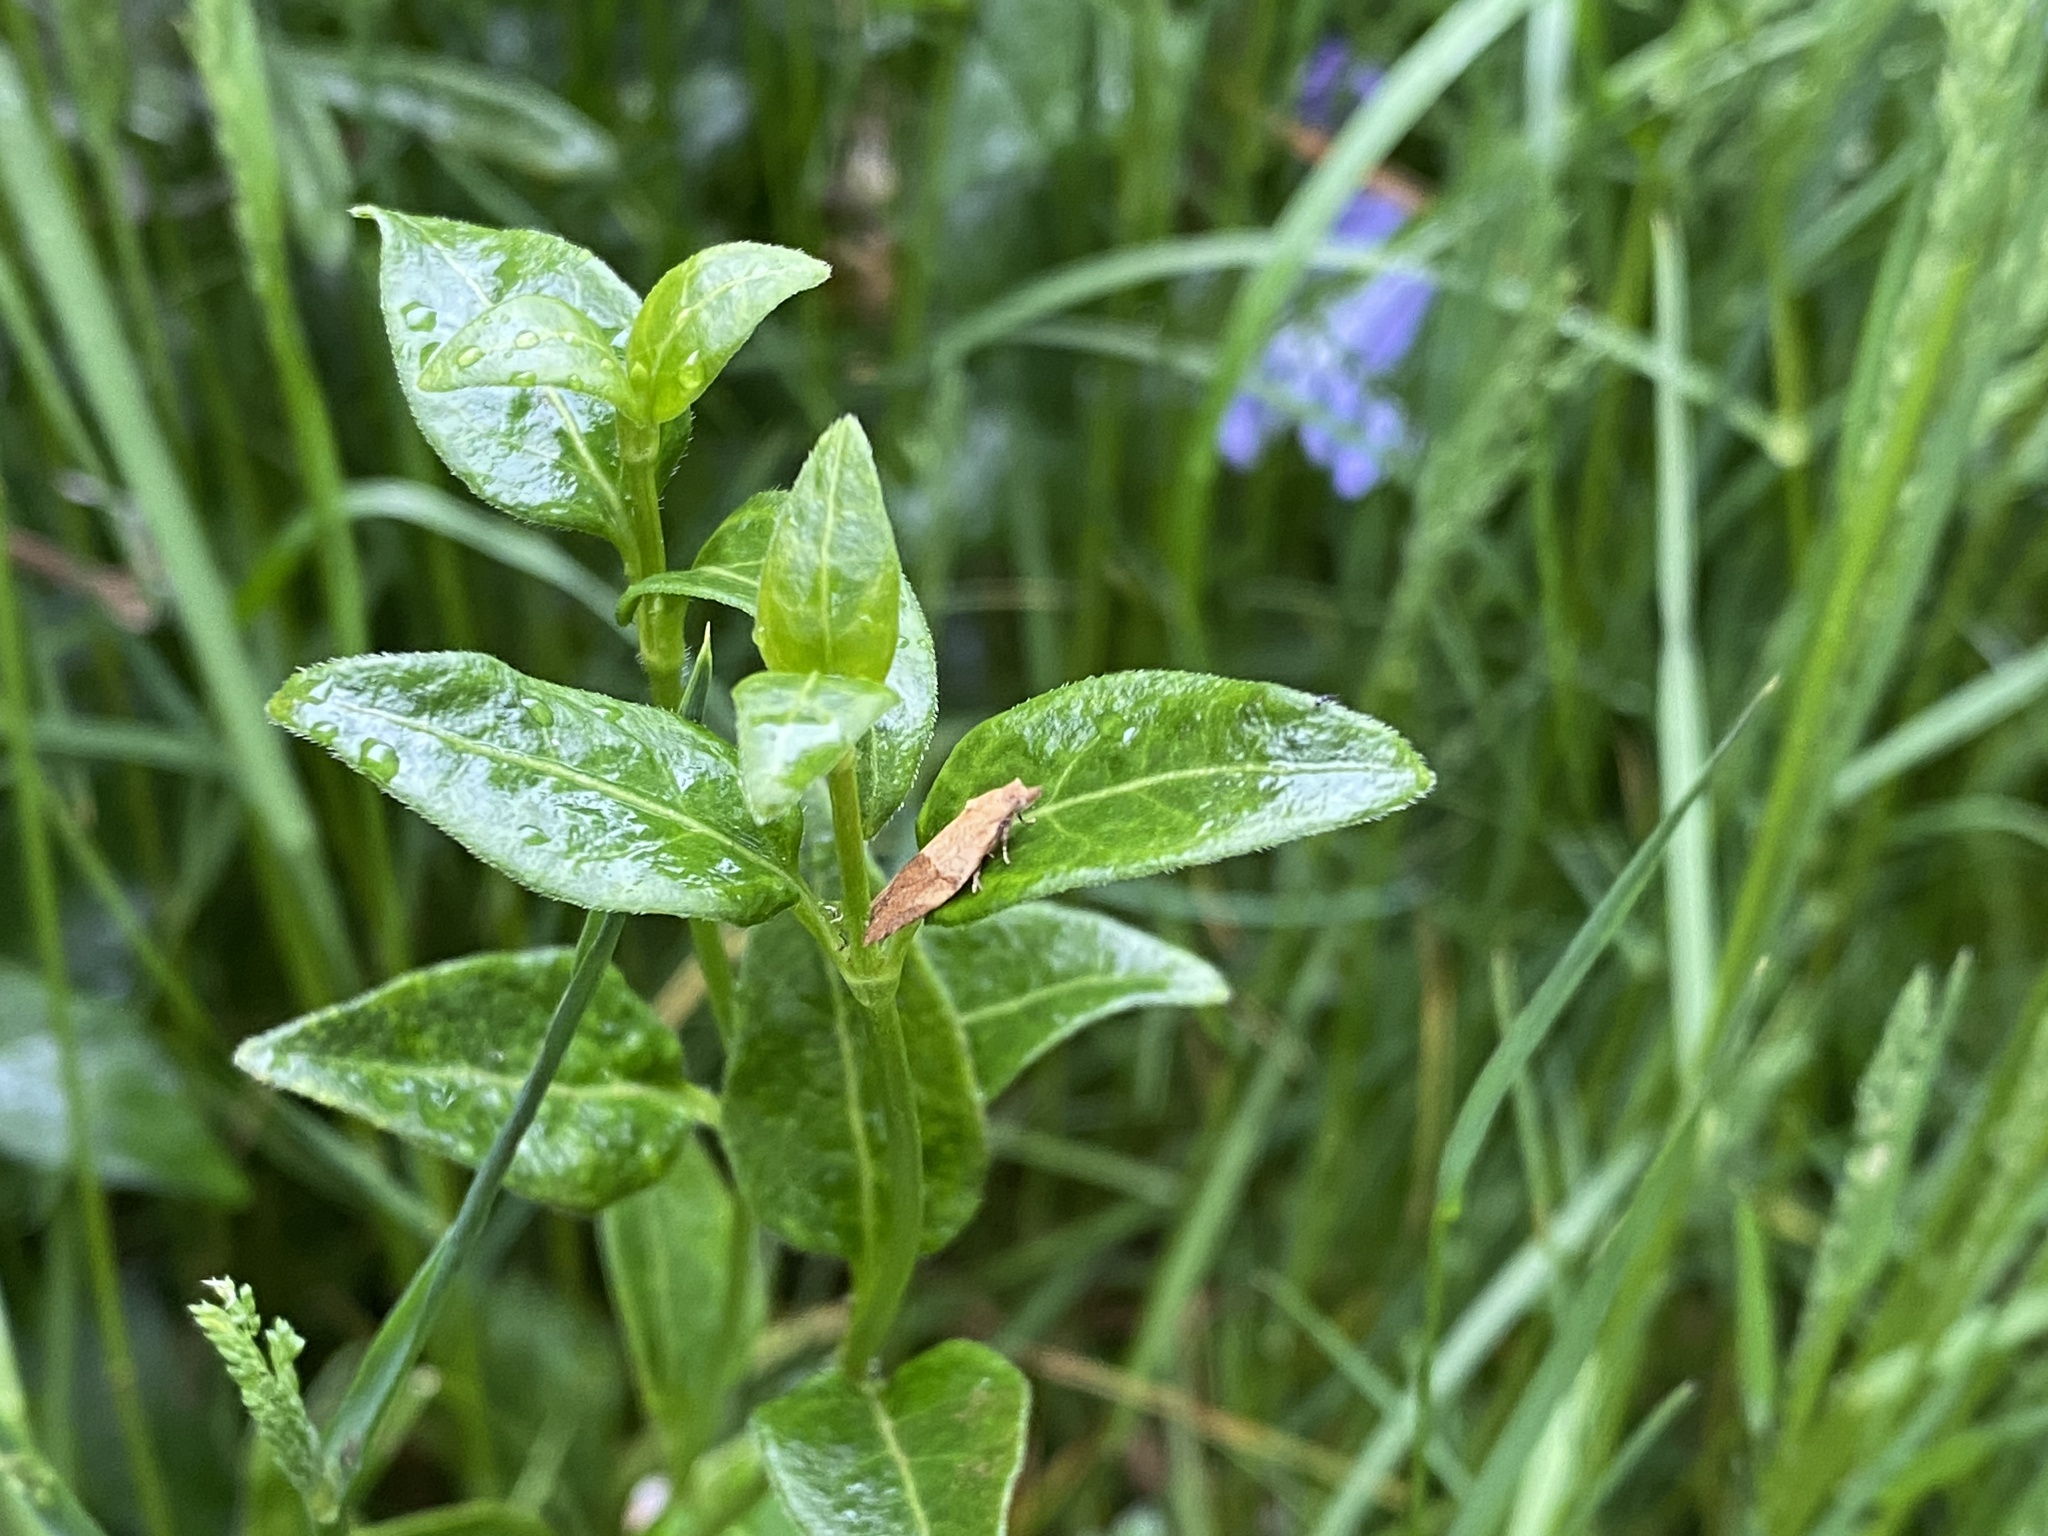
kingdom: Animalia
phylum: Arthropoda
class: Insecta
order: Lepidoptera
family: Tortricidae
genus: Epiphyas
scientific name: Epiphyas postvittana
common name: Light brown apple moth
